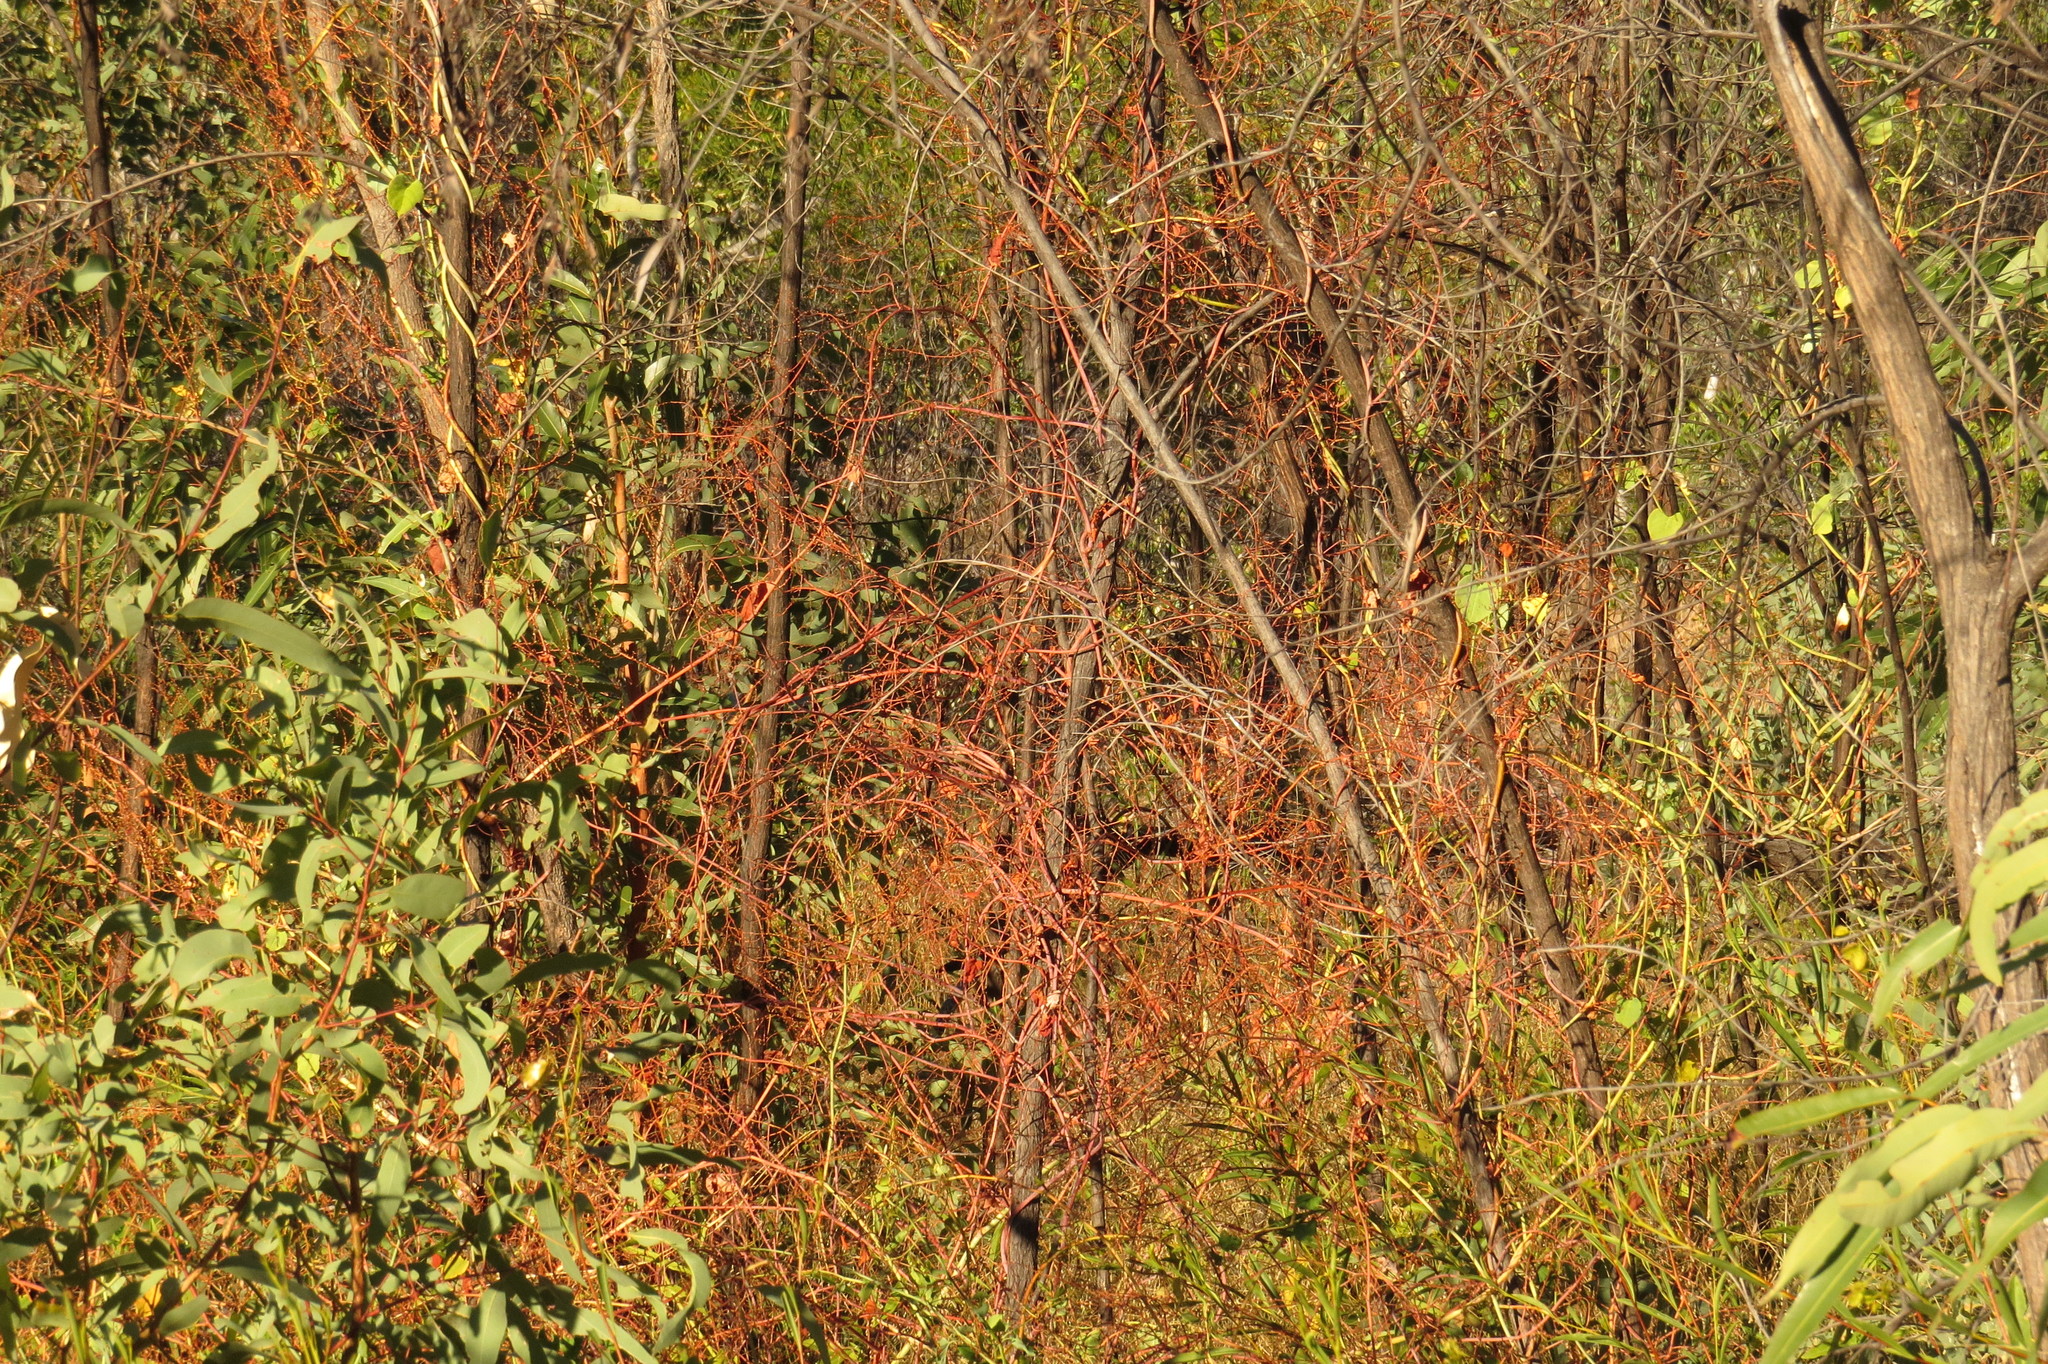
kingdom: Plantae
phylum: Tracheophyta
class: Magnoliopsida
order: Caryophyllales
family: Polygonaceae
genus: Muehlenbeckia
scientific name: Muehlenbeckia rhyticarya
